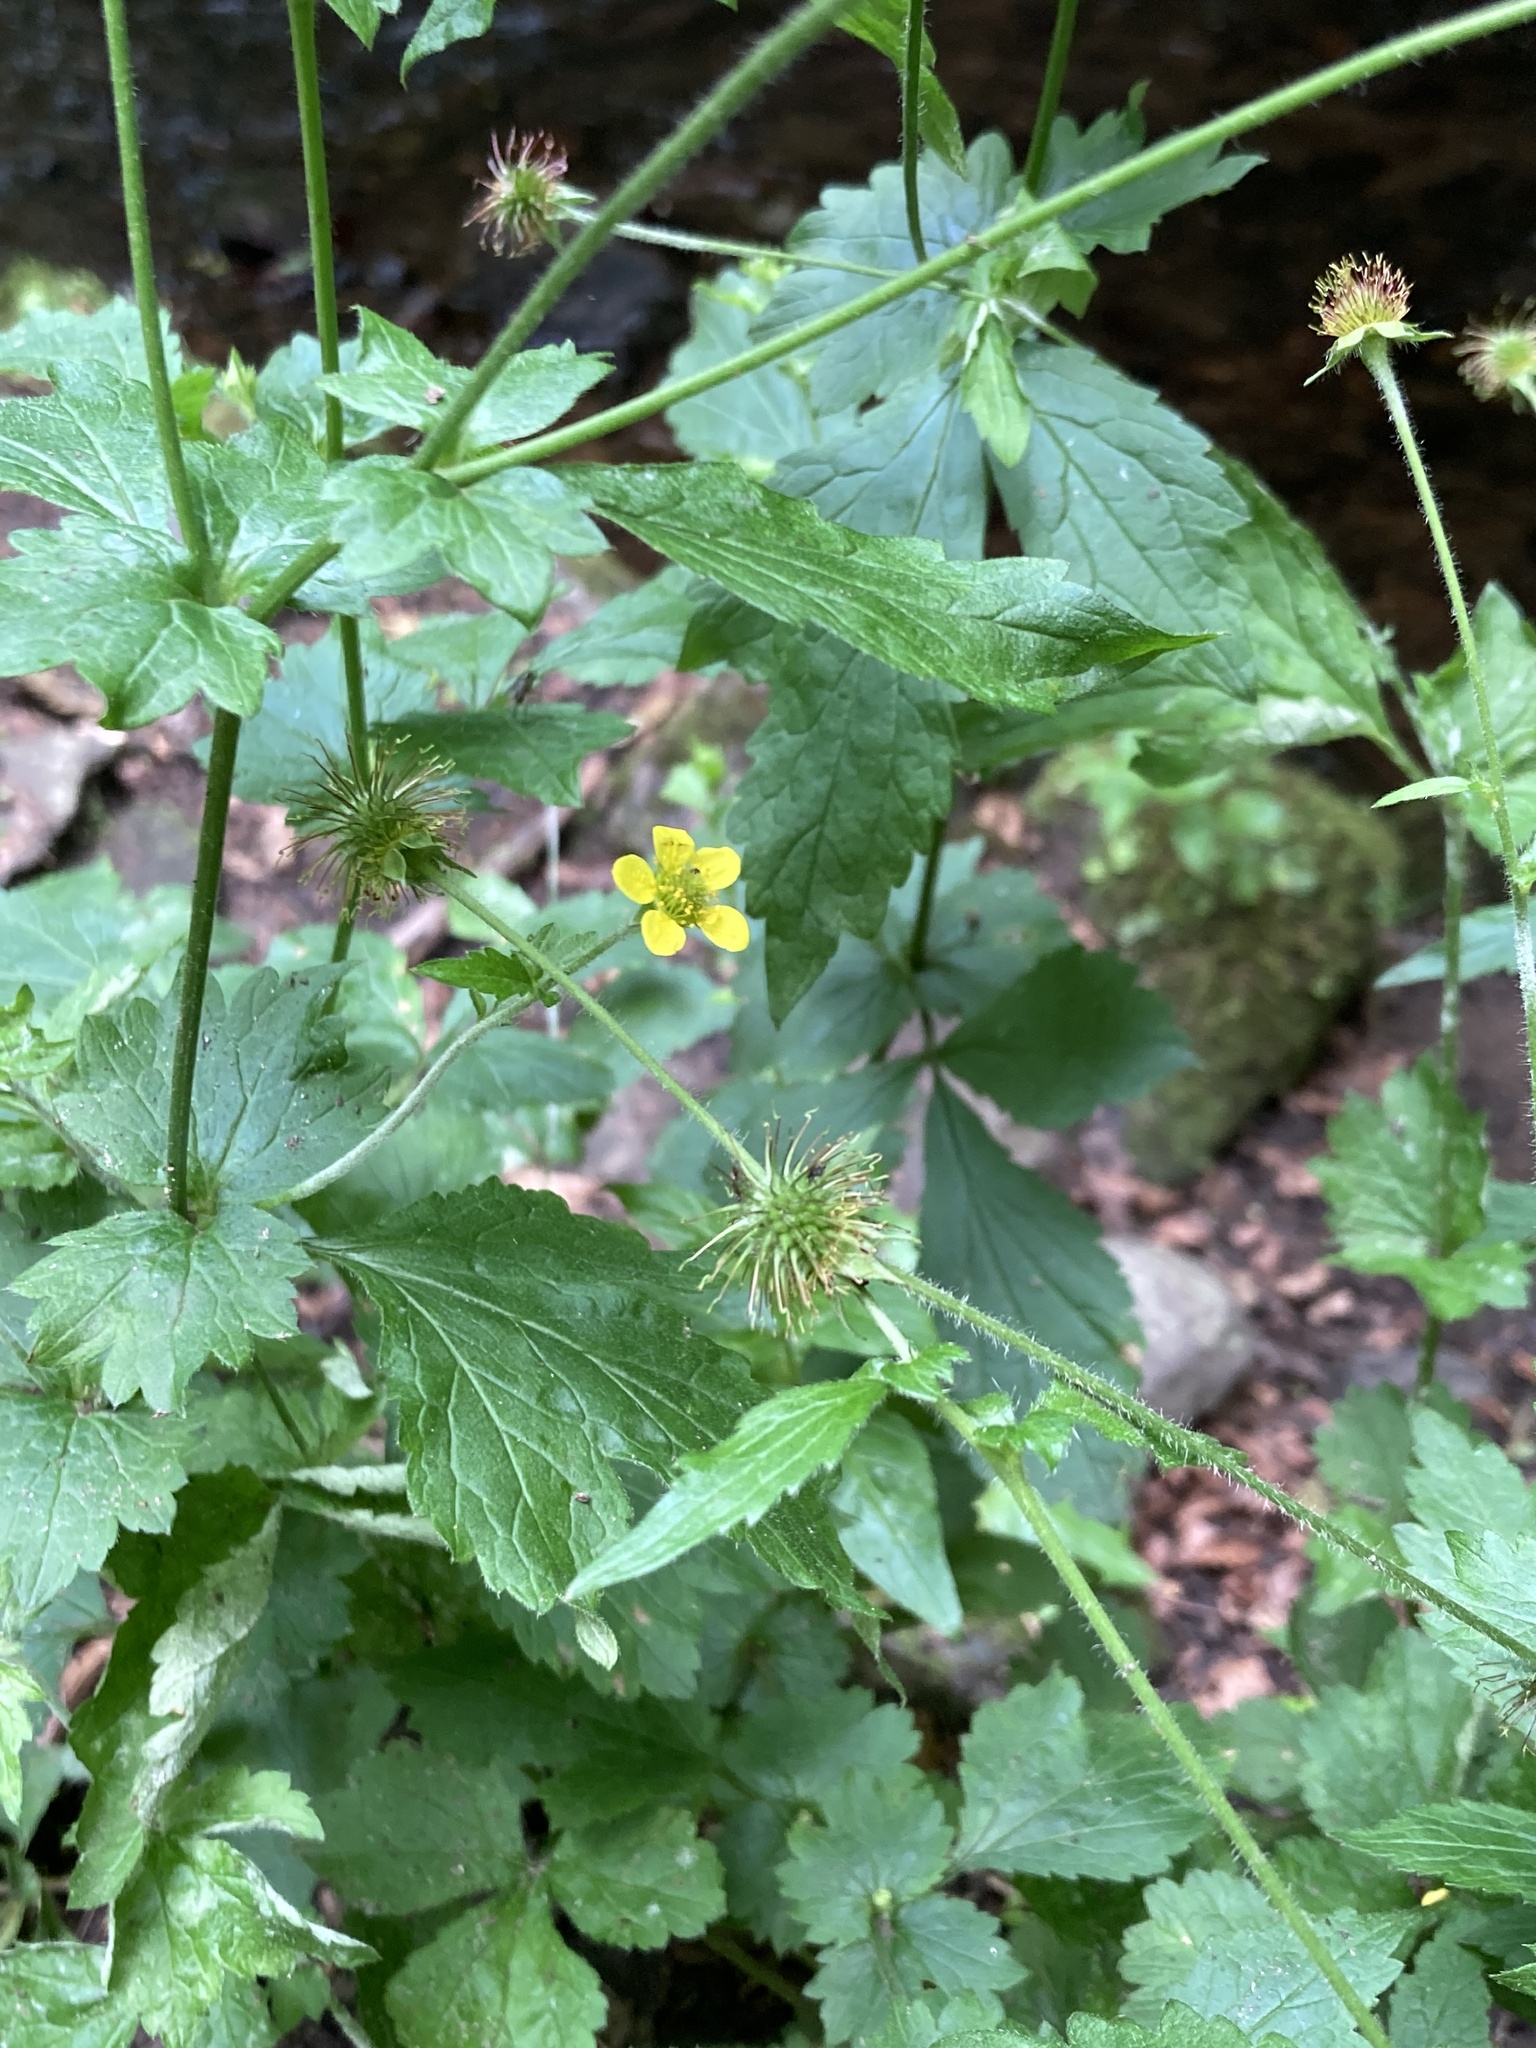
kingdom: Plantae
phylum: Tracheophyta
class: Magnoliopsida
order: Rosales
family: Rosaceae
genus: Geum
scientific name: Geum urbanum
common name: Wood avens
